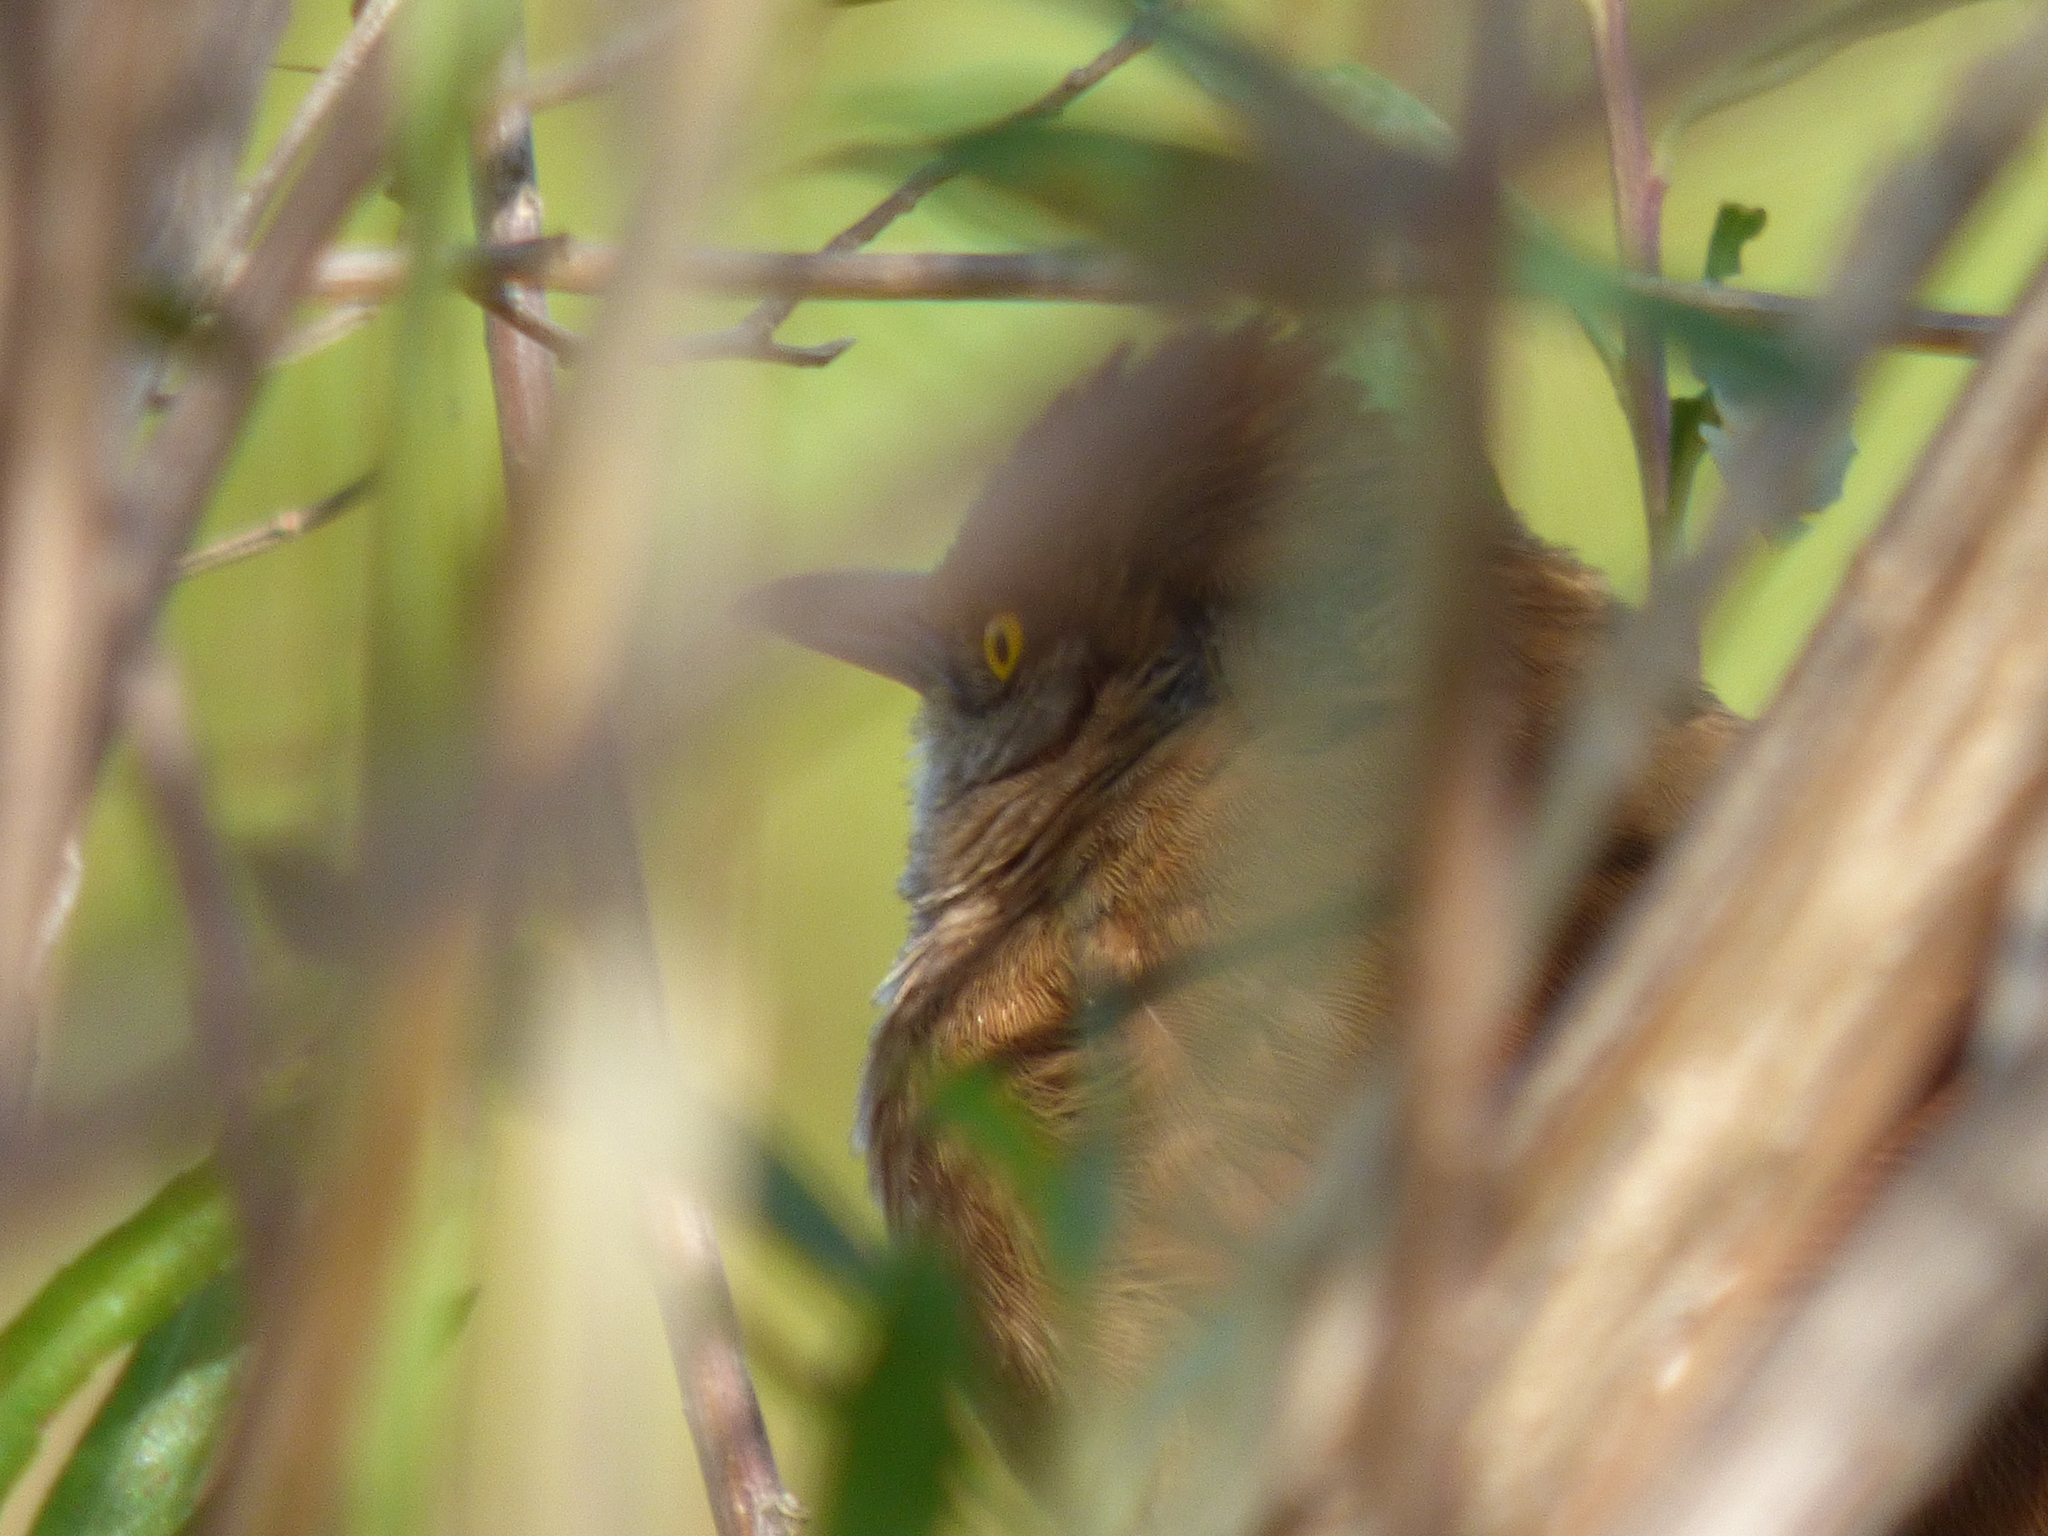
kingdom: Animalia
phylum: Chordata
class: Aves
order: Passeriformes
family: Furnariidae
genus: Phacellodomus
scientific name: Phacellodomus ruber
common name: Greater thornbird
